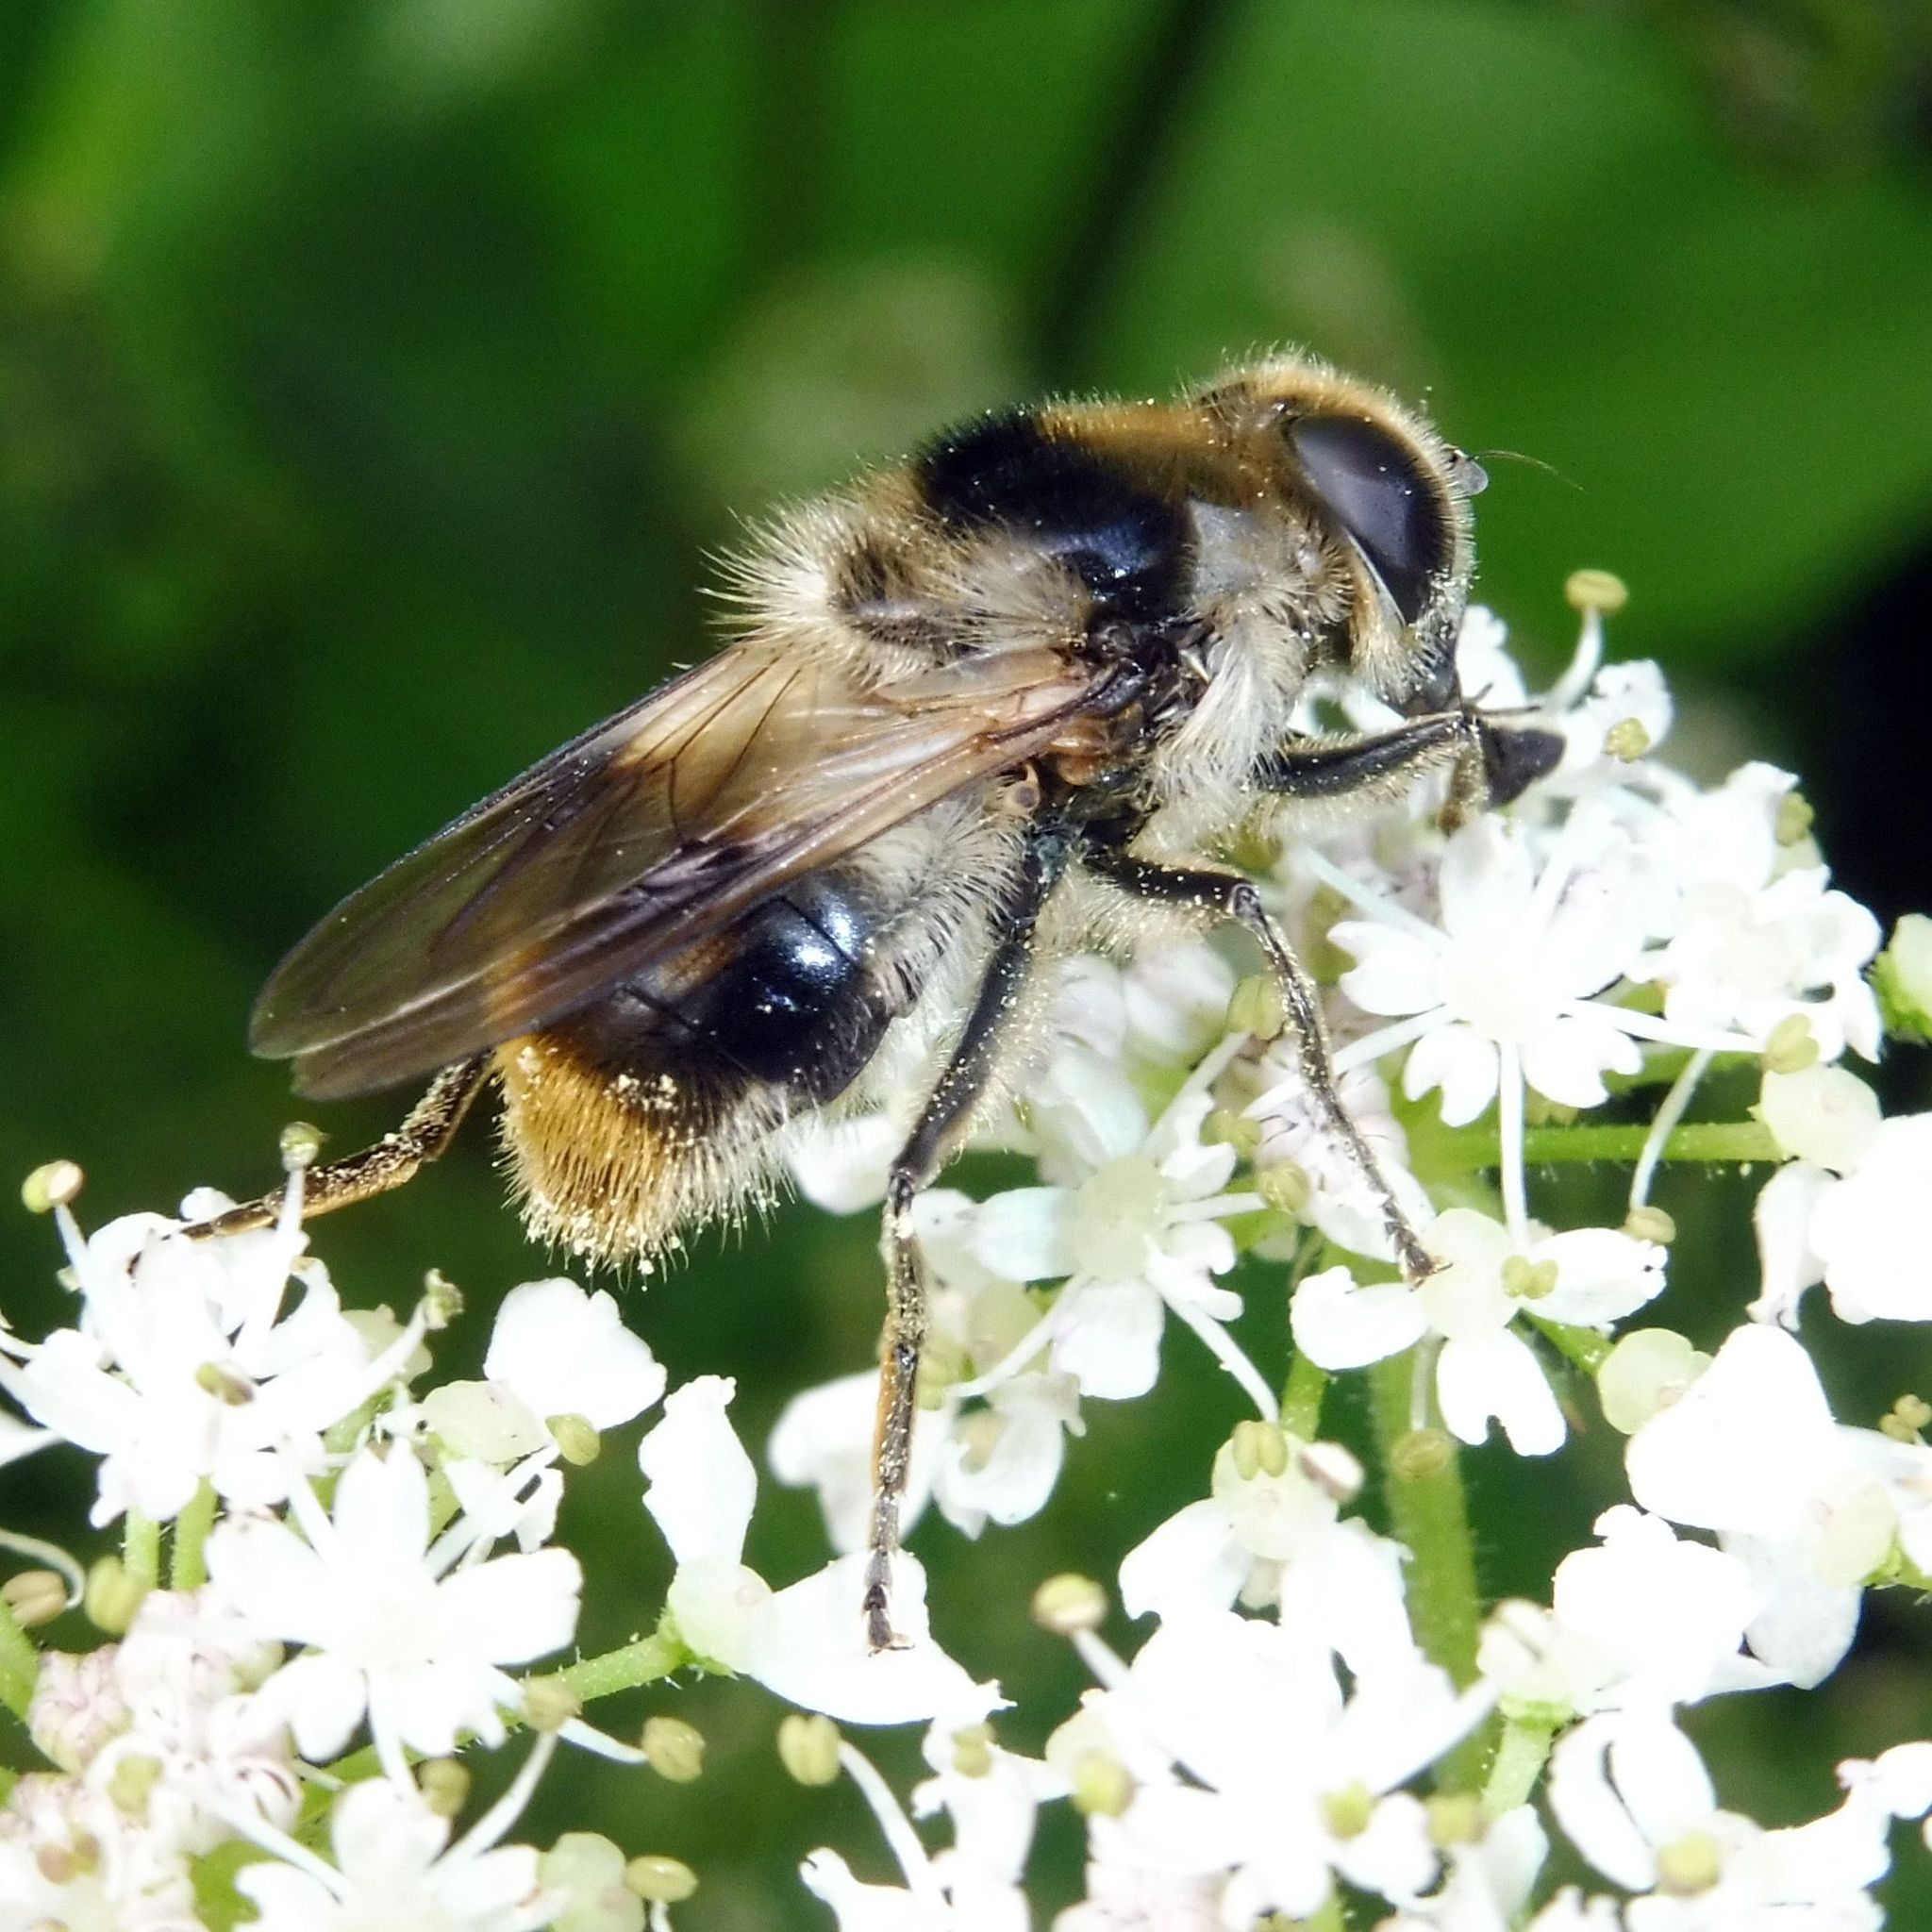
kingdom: Animalia
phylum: Arthropoda
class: Insecta
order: Diptera
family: Syrphidae
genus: Cheilosia
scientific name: Cheilosia illustrata
